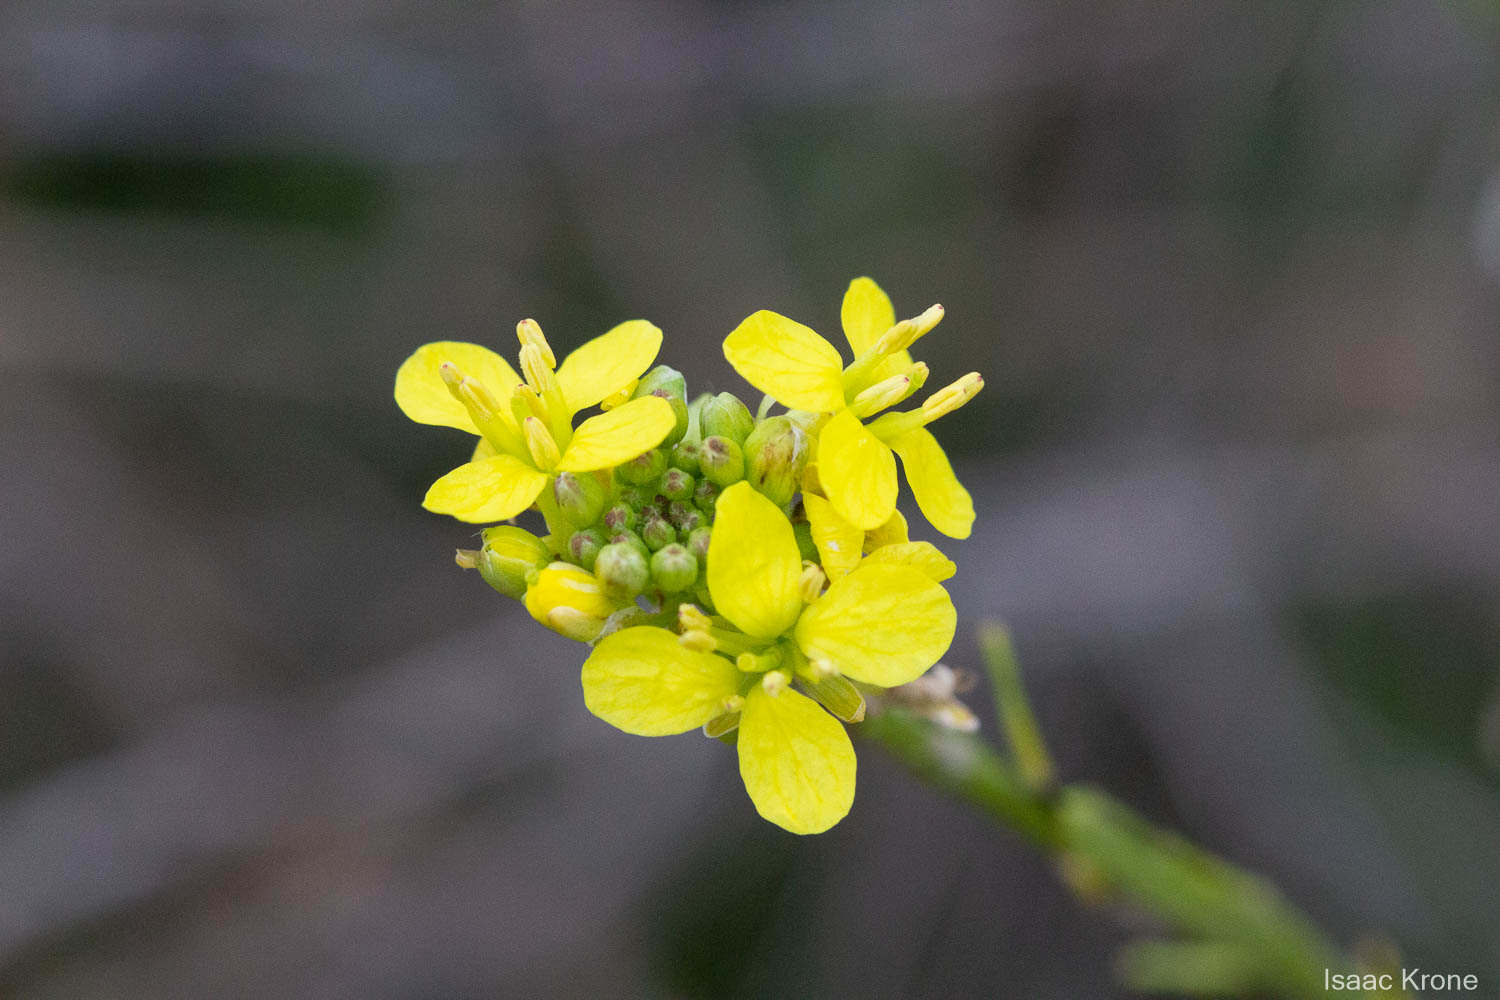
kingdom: Plantae
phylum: Tracheophyta
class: Magnoliopsida
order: Brassicales
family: Brassicaceae
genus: Hirschfeldia
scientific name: Hirschfeldia incana
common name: Hoary mustard
